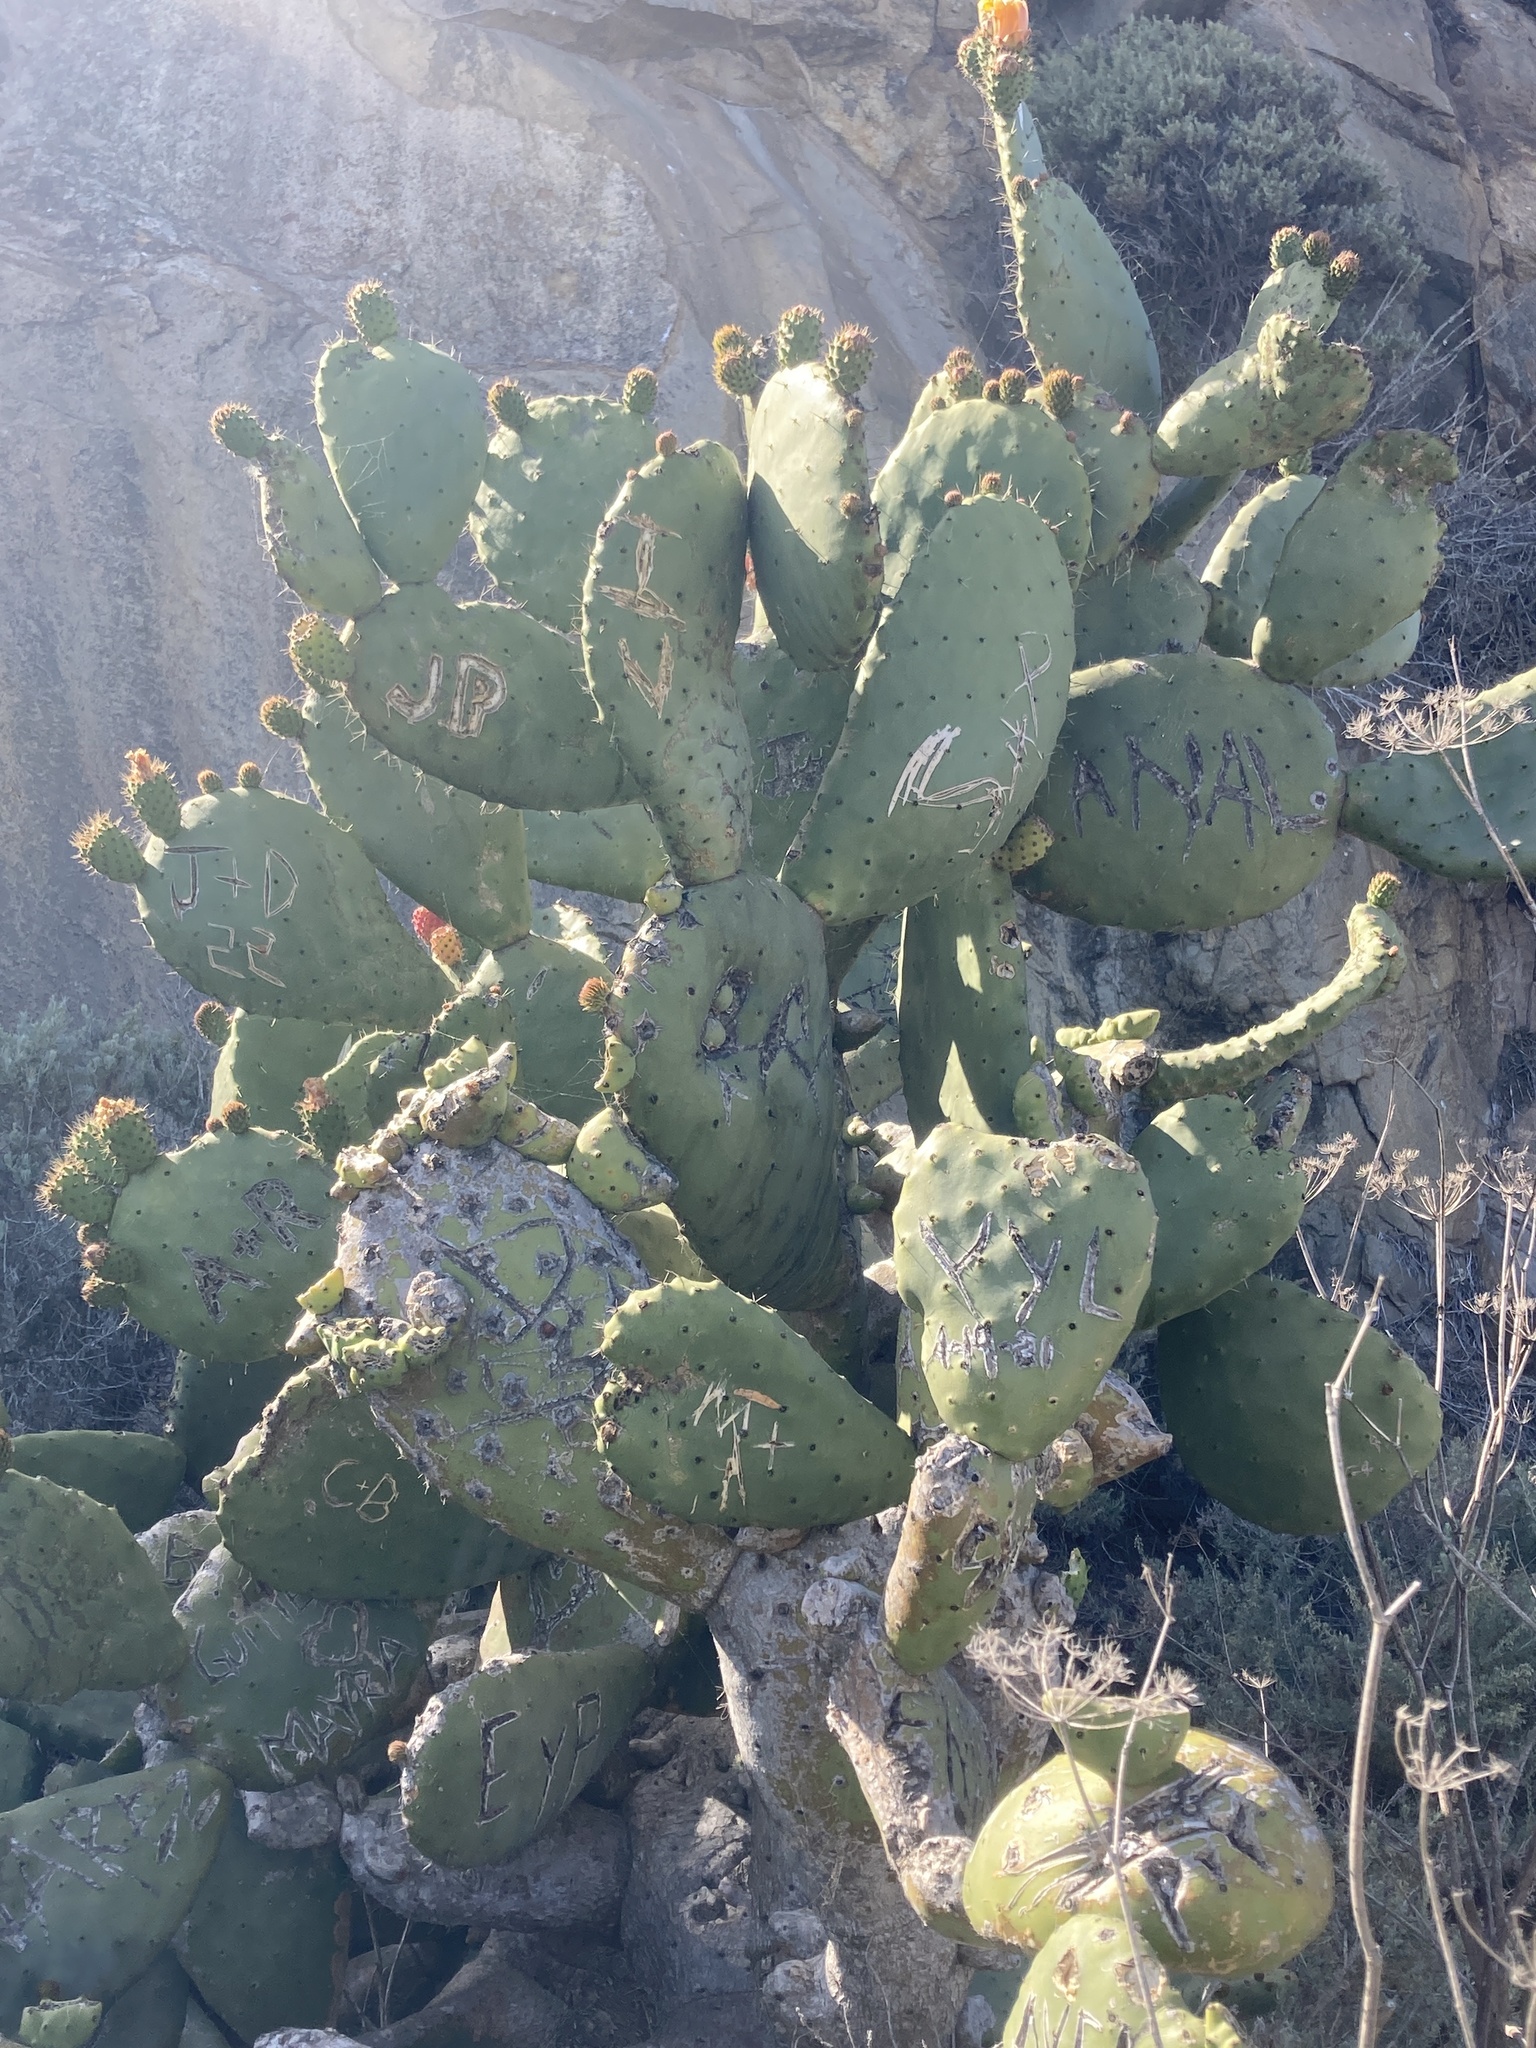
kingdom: Plantae
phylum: Tracheophyta
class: Magnoliopsida
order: Caryophyllales
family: Cactaceae
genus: Opuntia
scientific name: Opuntia ficus-indica
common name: Barbary fig
